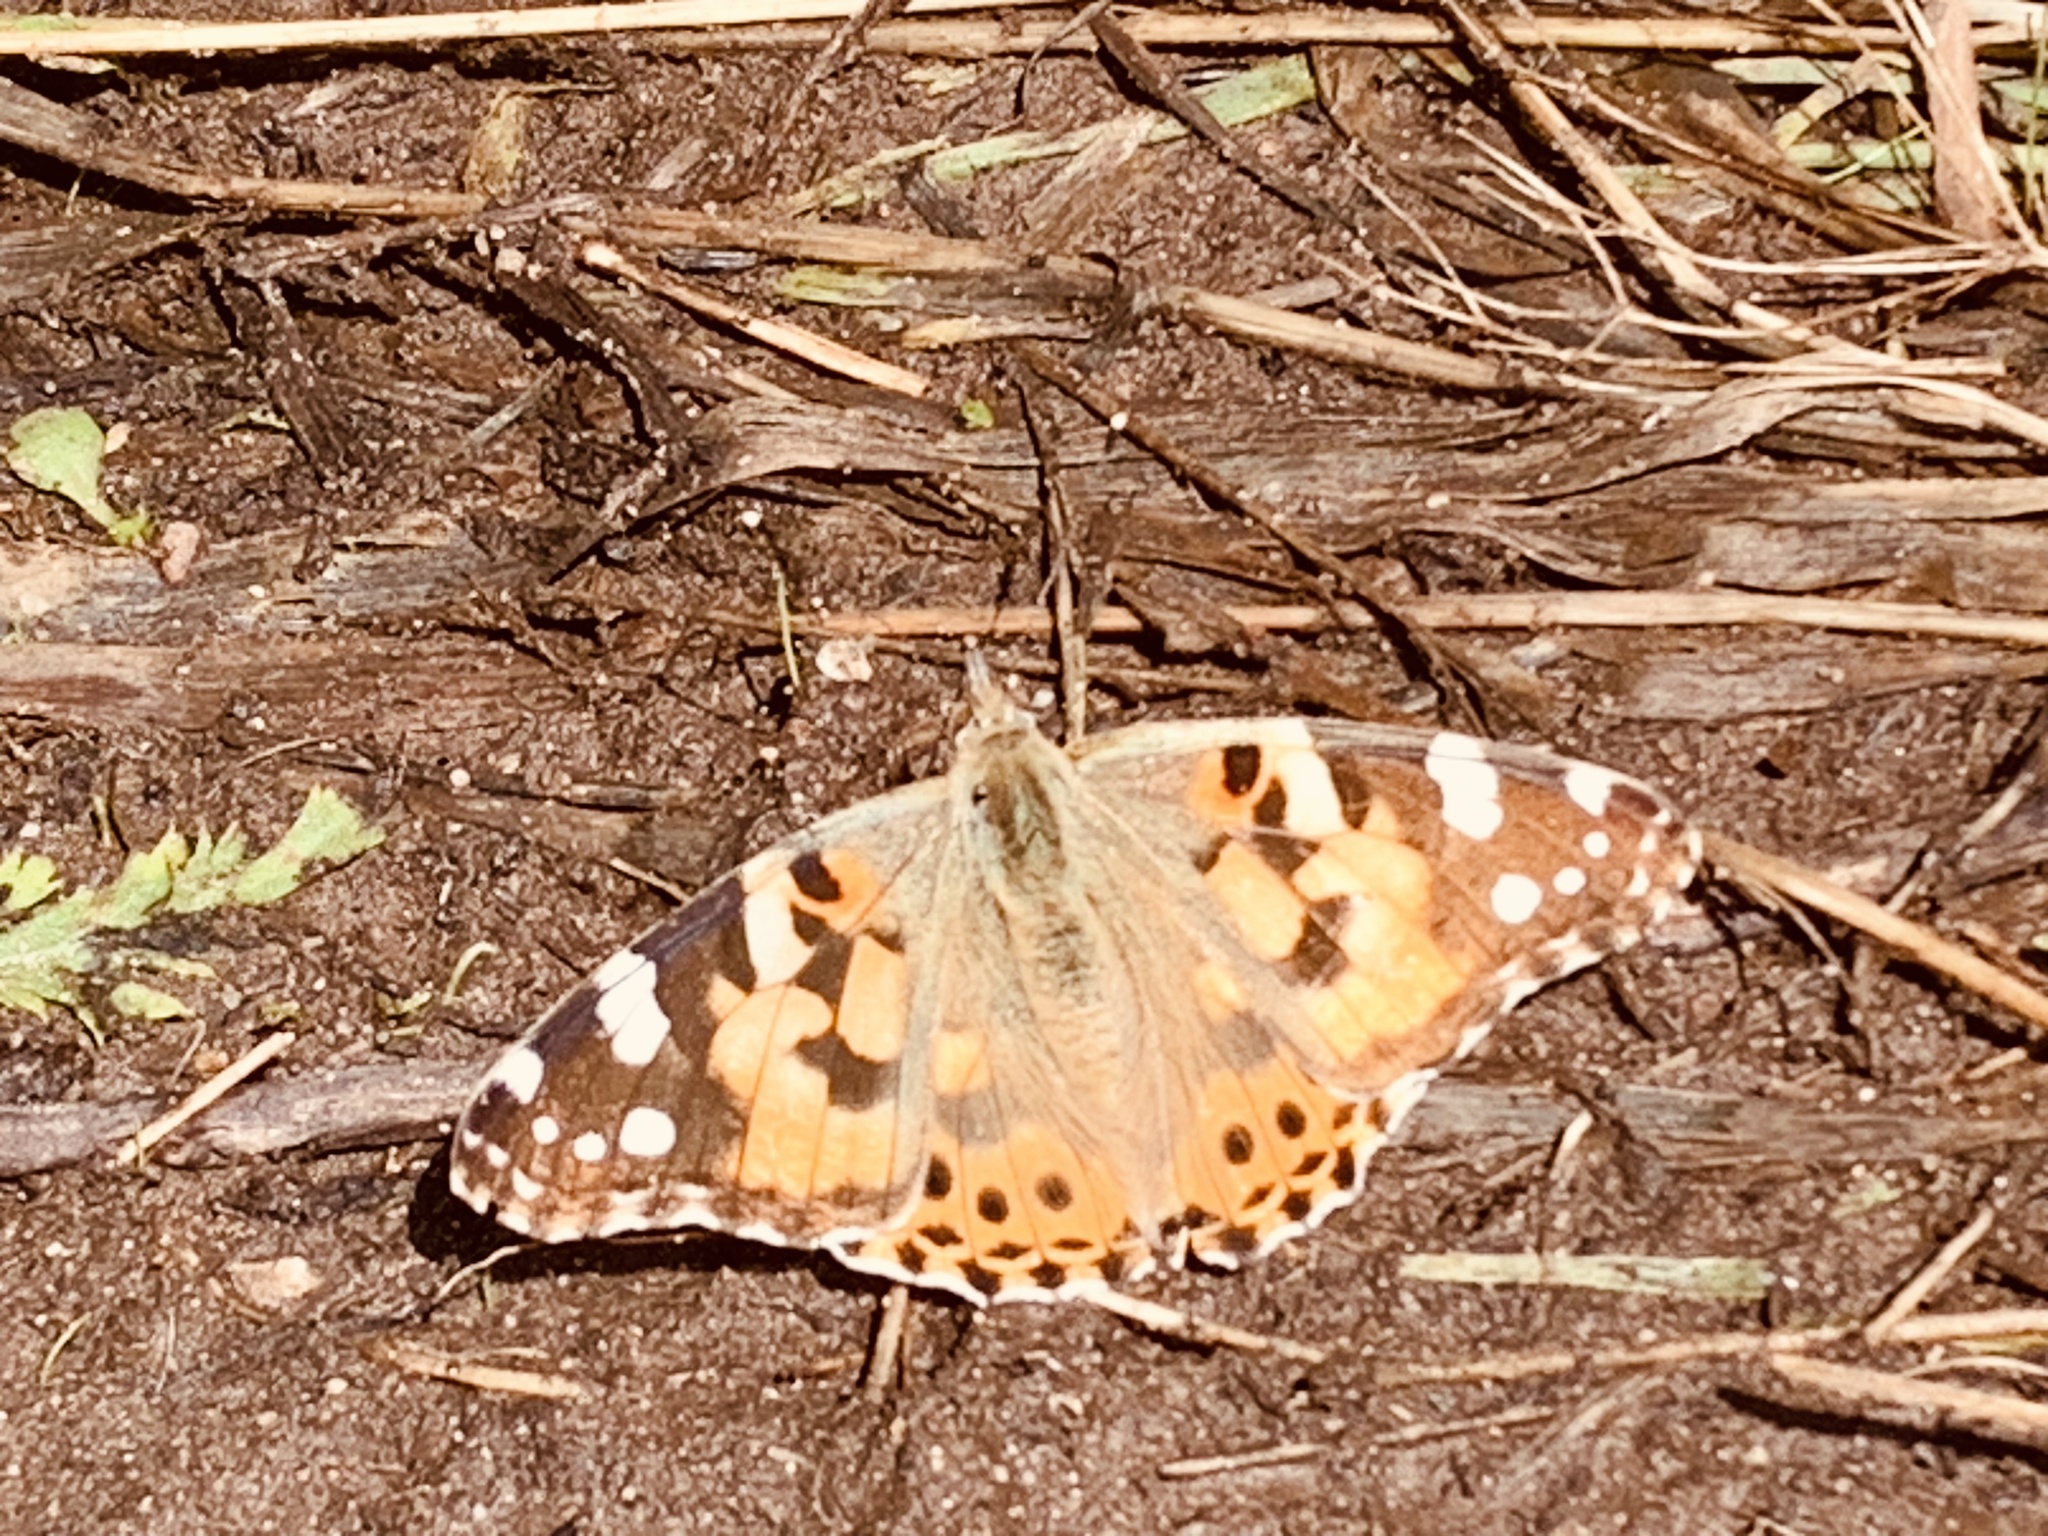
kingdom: Animalia
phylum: Arthropoda
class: Insecta
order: Lepidoptera
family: Nymphalidae
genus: Vanessa
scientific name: Vanessa cardui
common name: Painted lady
